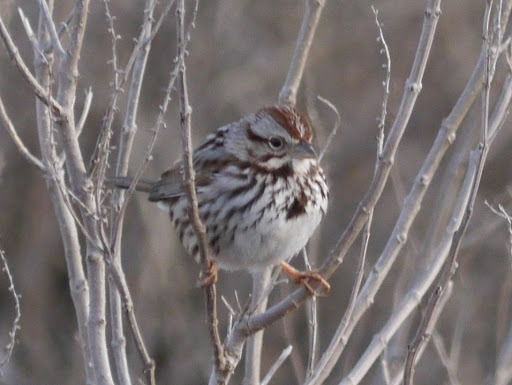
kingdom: Animalia
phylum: Chordata
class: Aves
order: Passeriformes
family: Passerellidae
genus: Melospiza
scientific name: Melospiza melodia
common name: Song sparrow
